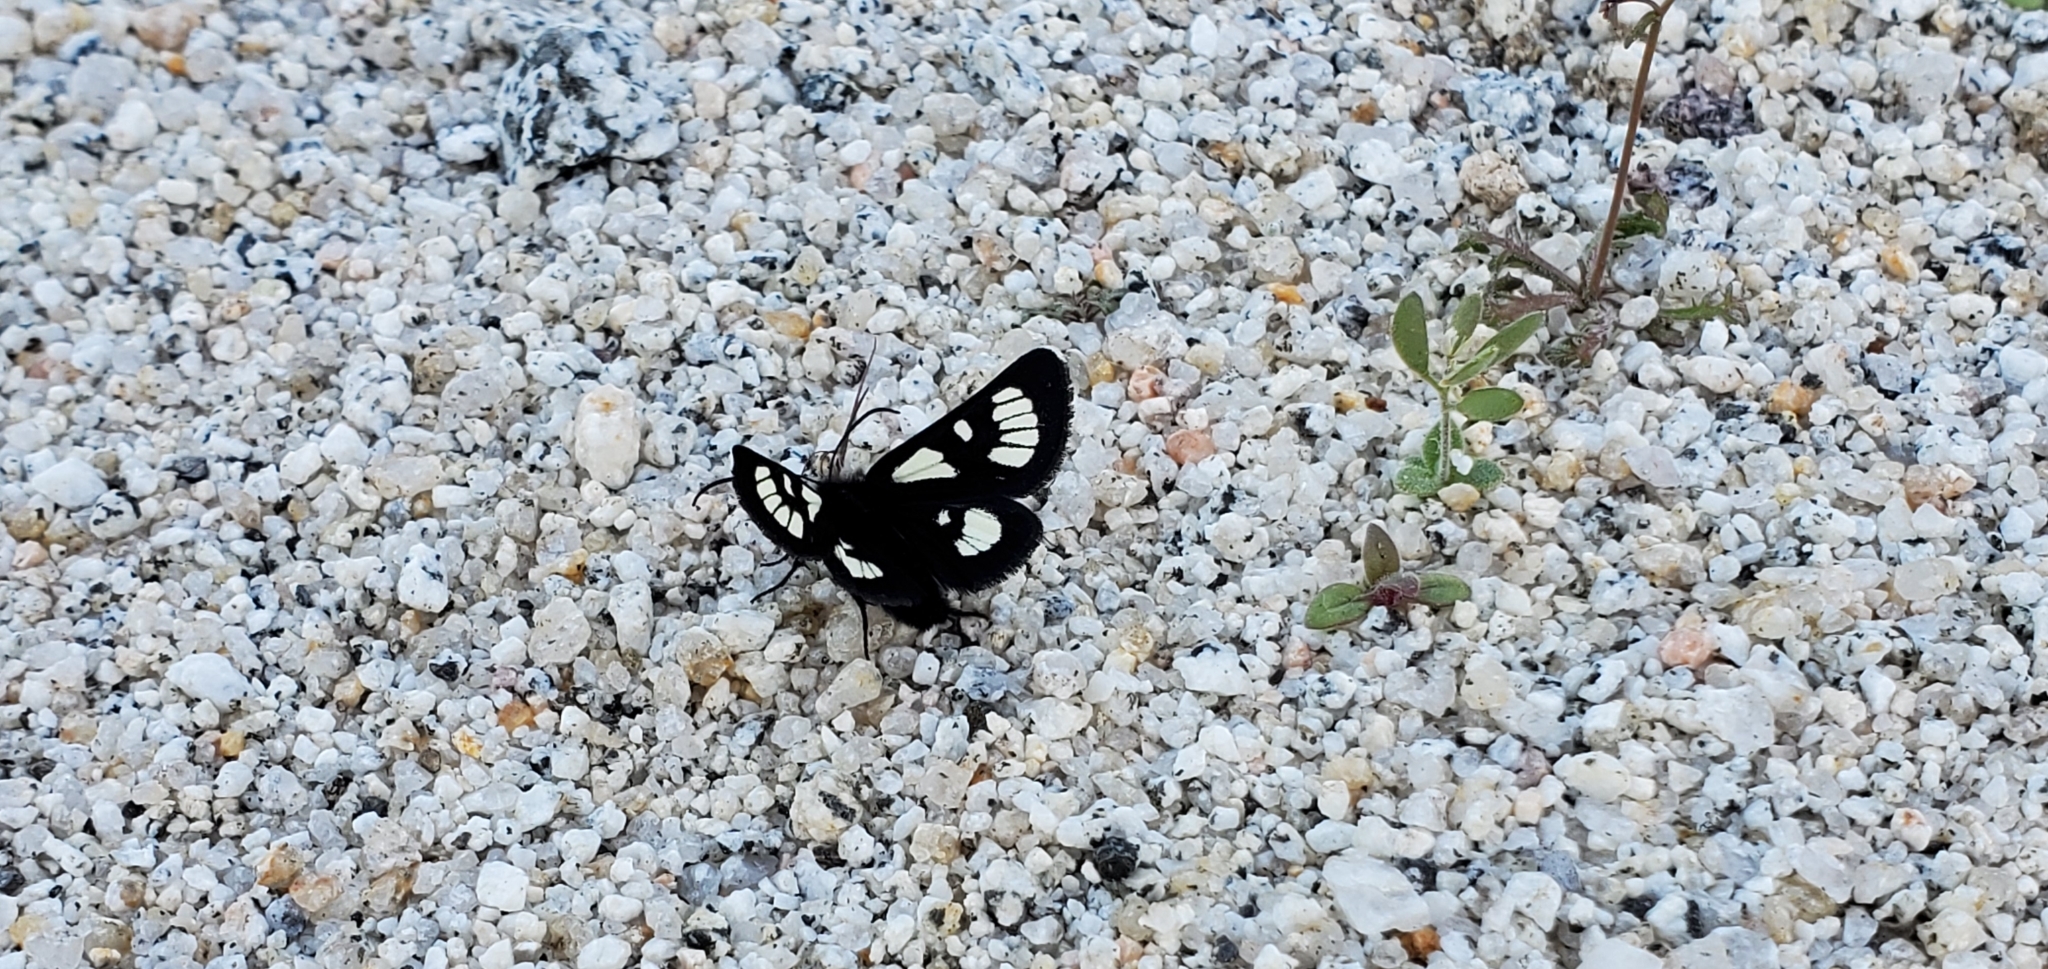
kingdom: Animalia
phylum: Arthropoda
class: Insecta
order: Lepidoptera
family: Noctuidae
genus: Alypia
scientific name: Alypia ridingsii
